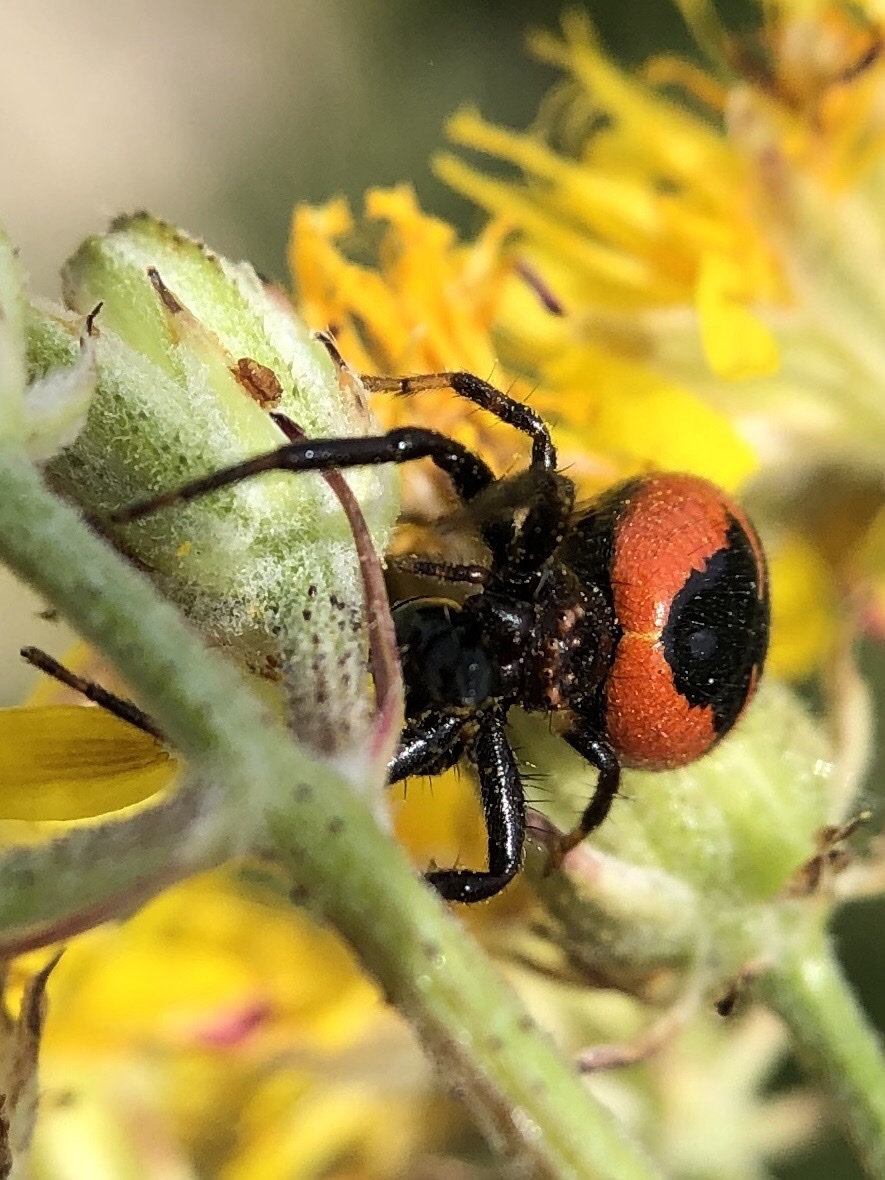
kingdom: Animalia
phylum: Arthropoda
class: Arachnida
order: Araneae
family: Thomisidae
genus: Synema
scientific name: Synema globosum
